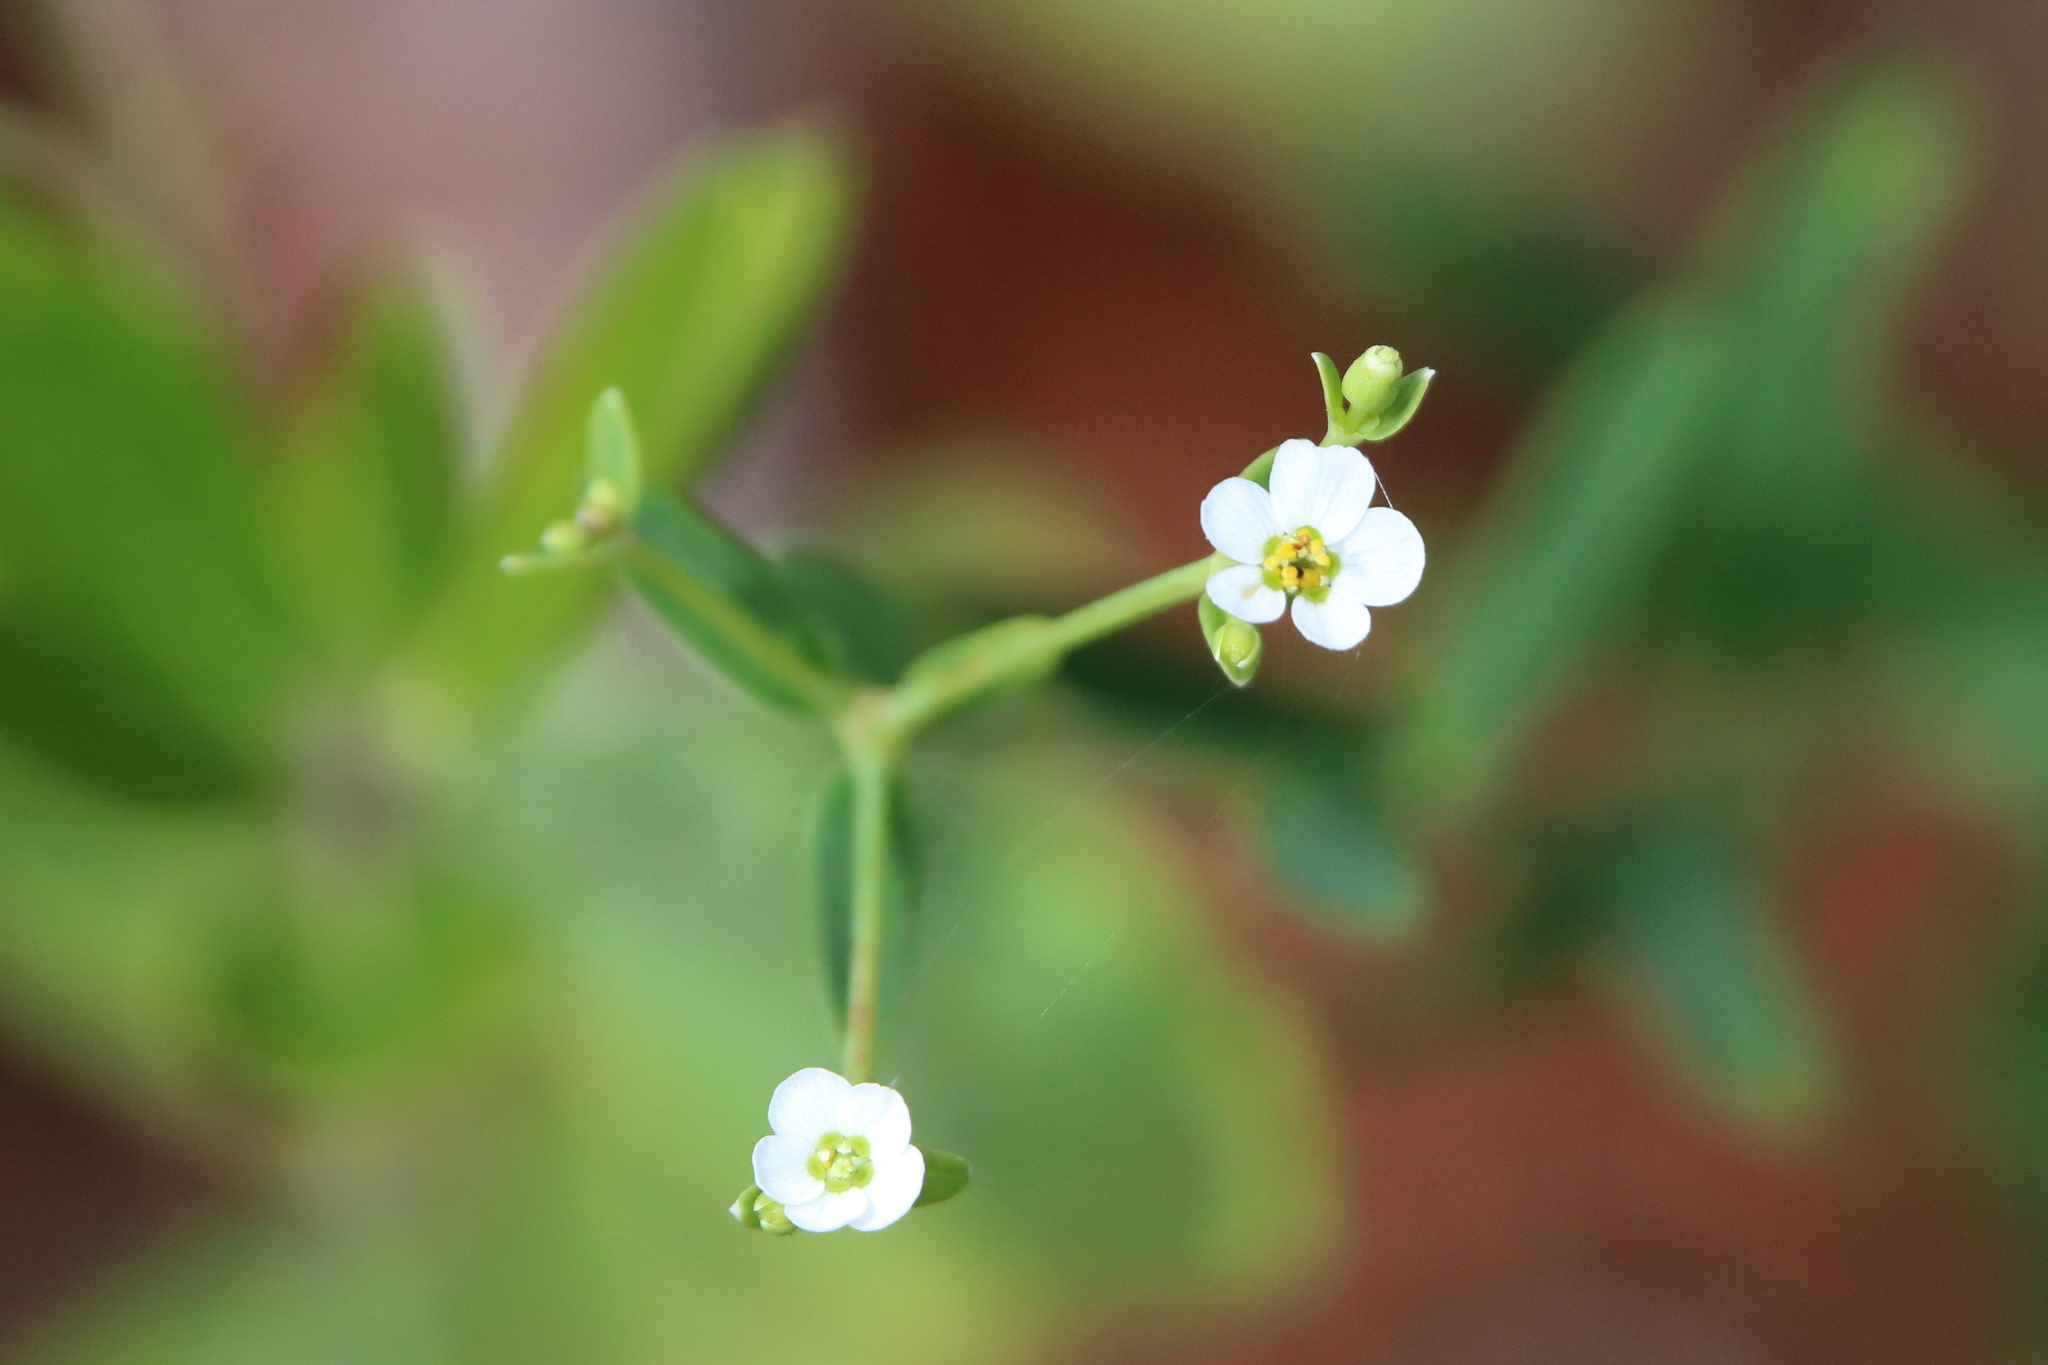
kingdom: Plantae
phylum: Tracheophyta
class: Magnoliopsida
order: Malpighiales
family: Euphorbiaceae
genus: Euphorbia
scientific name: Euphorbia corollata
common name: Flowering spurge
